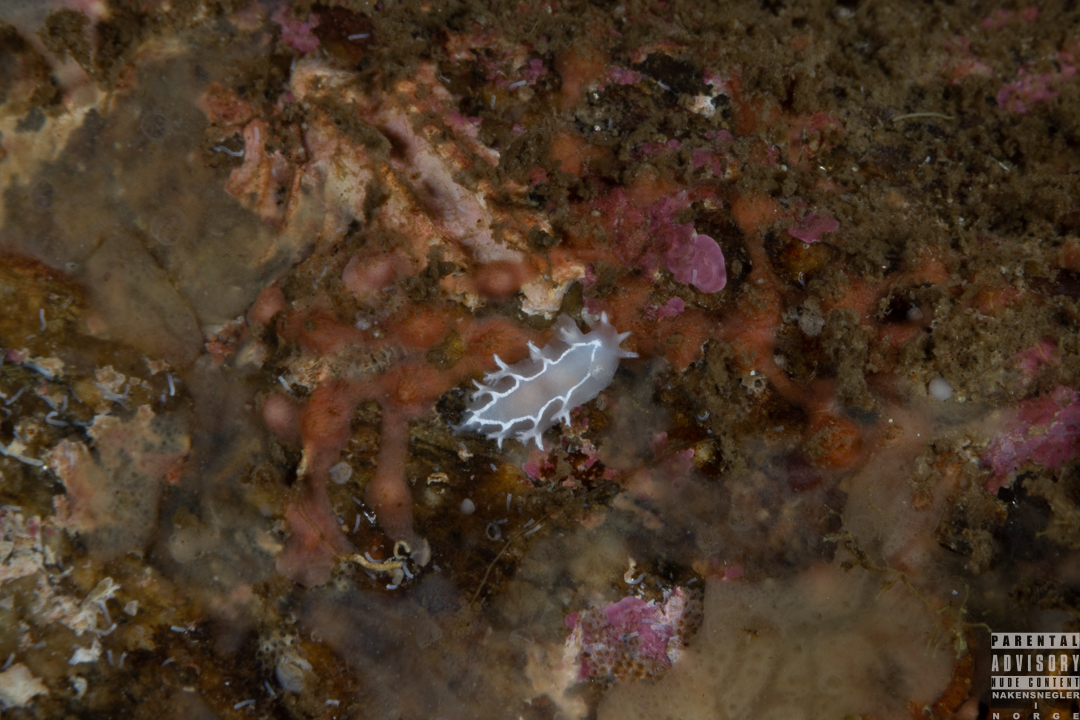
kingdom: Animalia
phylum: Mollusca
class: Gastropoda
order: Nudibranchia
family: Tritoniidae
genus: Duvaucelia
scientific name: Duvaucelia lineata
